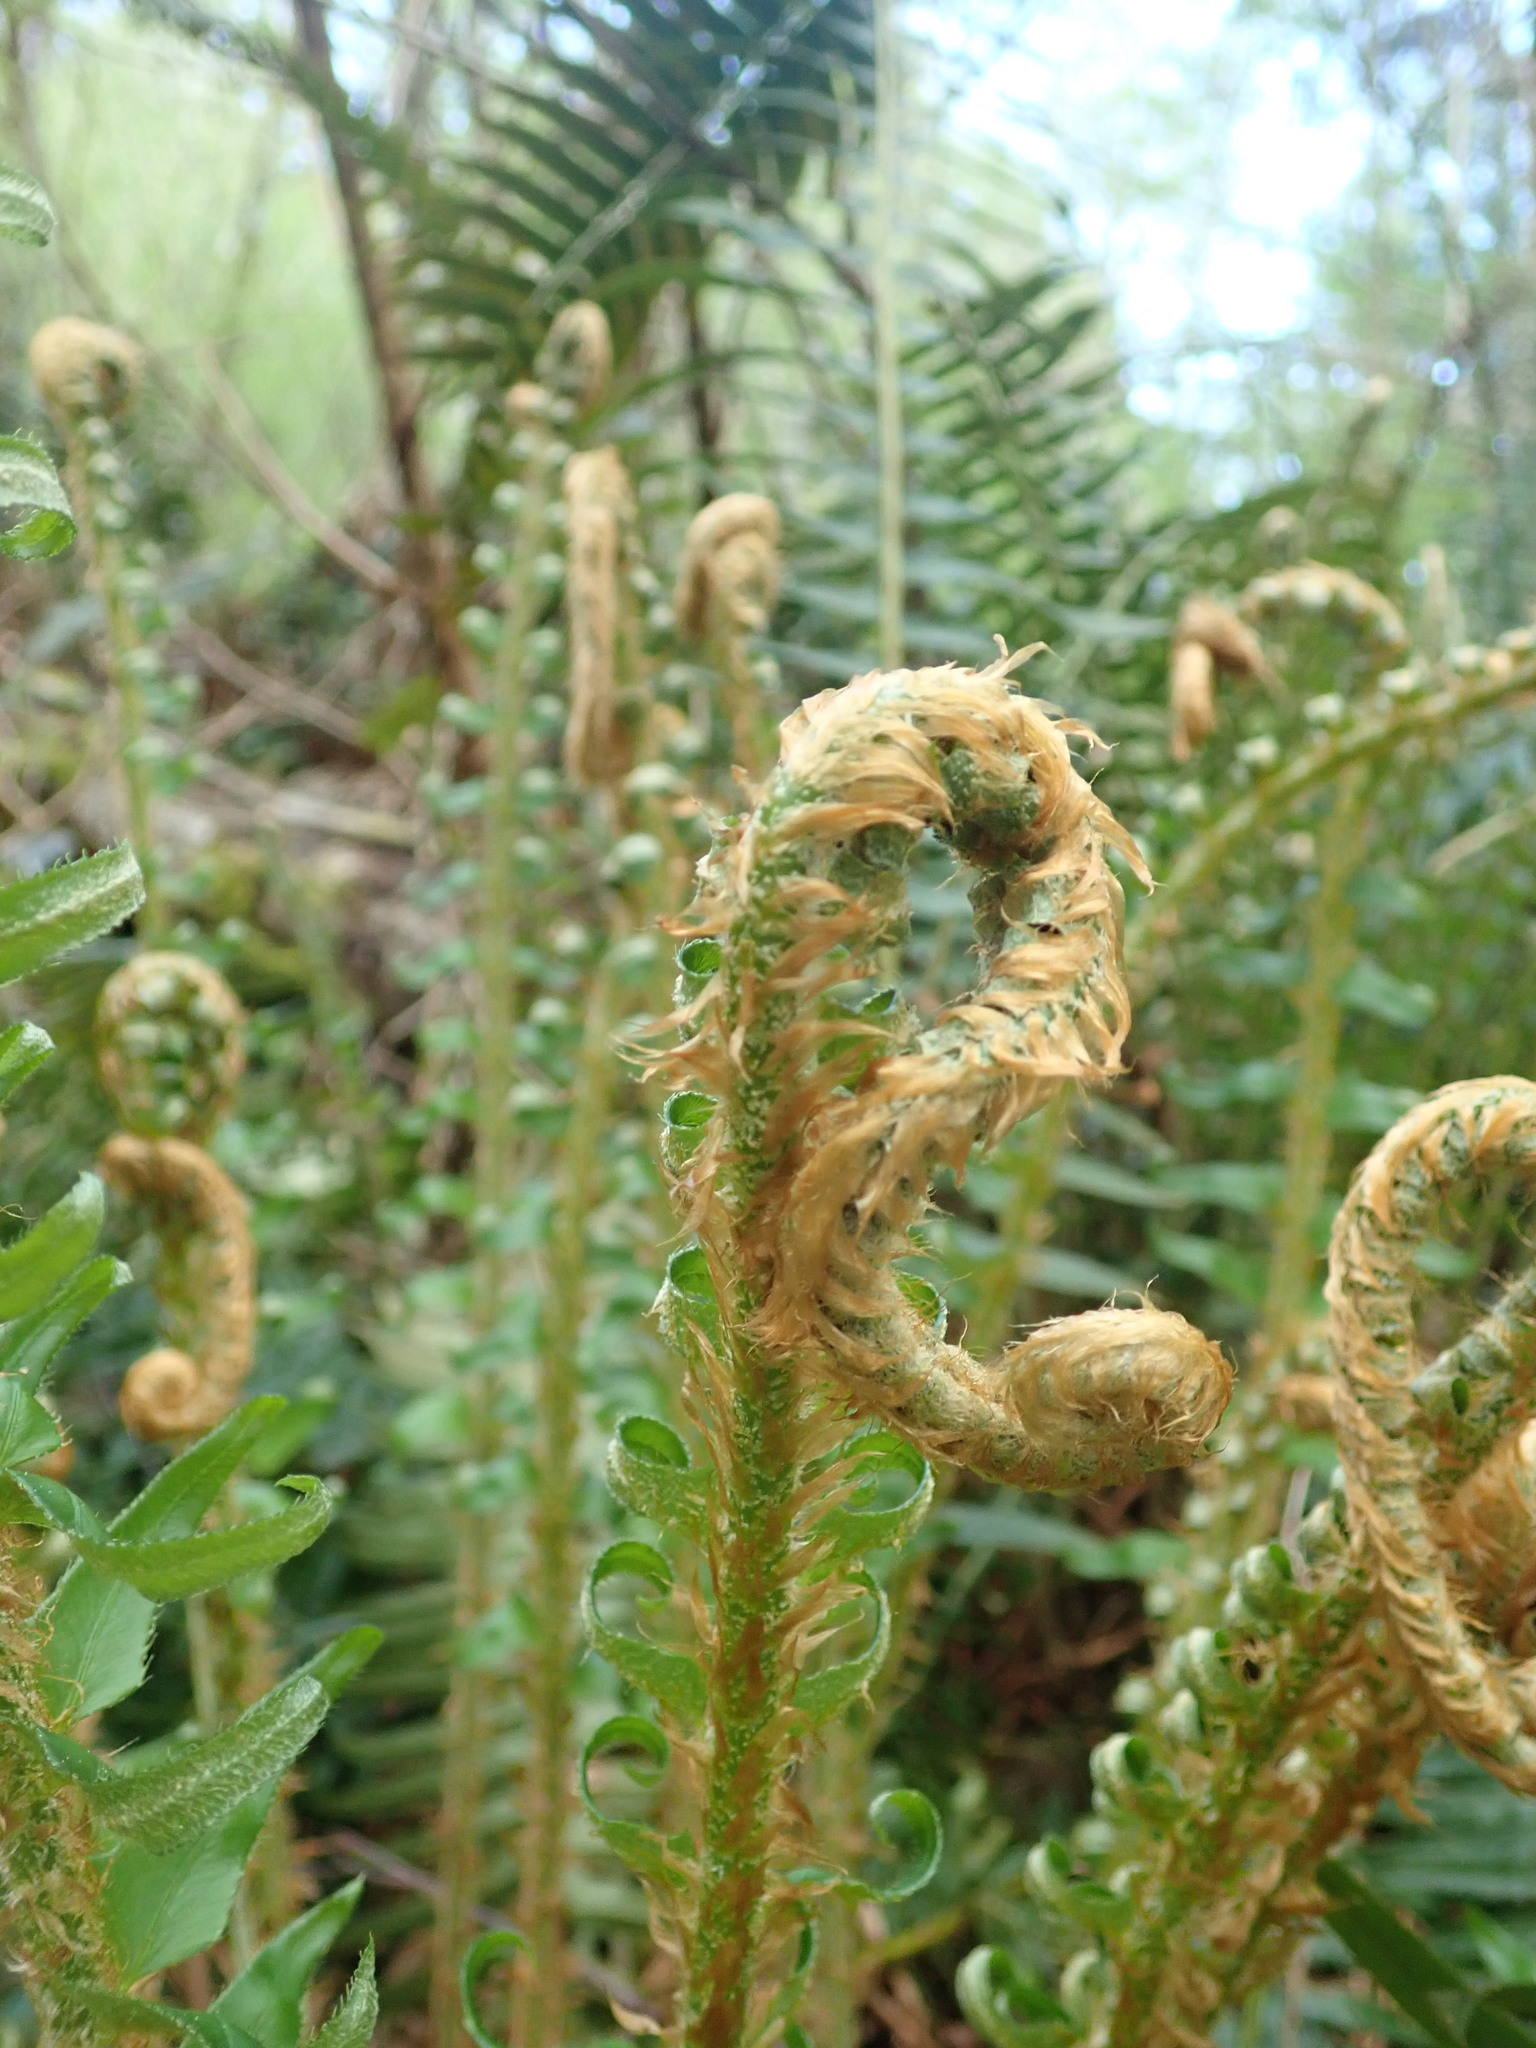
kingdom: Plantae
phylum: Tracheophyta
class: Polypodiopsida
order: Polypodiales
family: Dryopteridaceae
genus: Polystichum
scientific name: Polystichum munitum
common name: Western sword-fern
